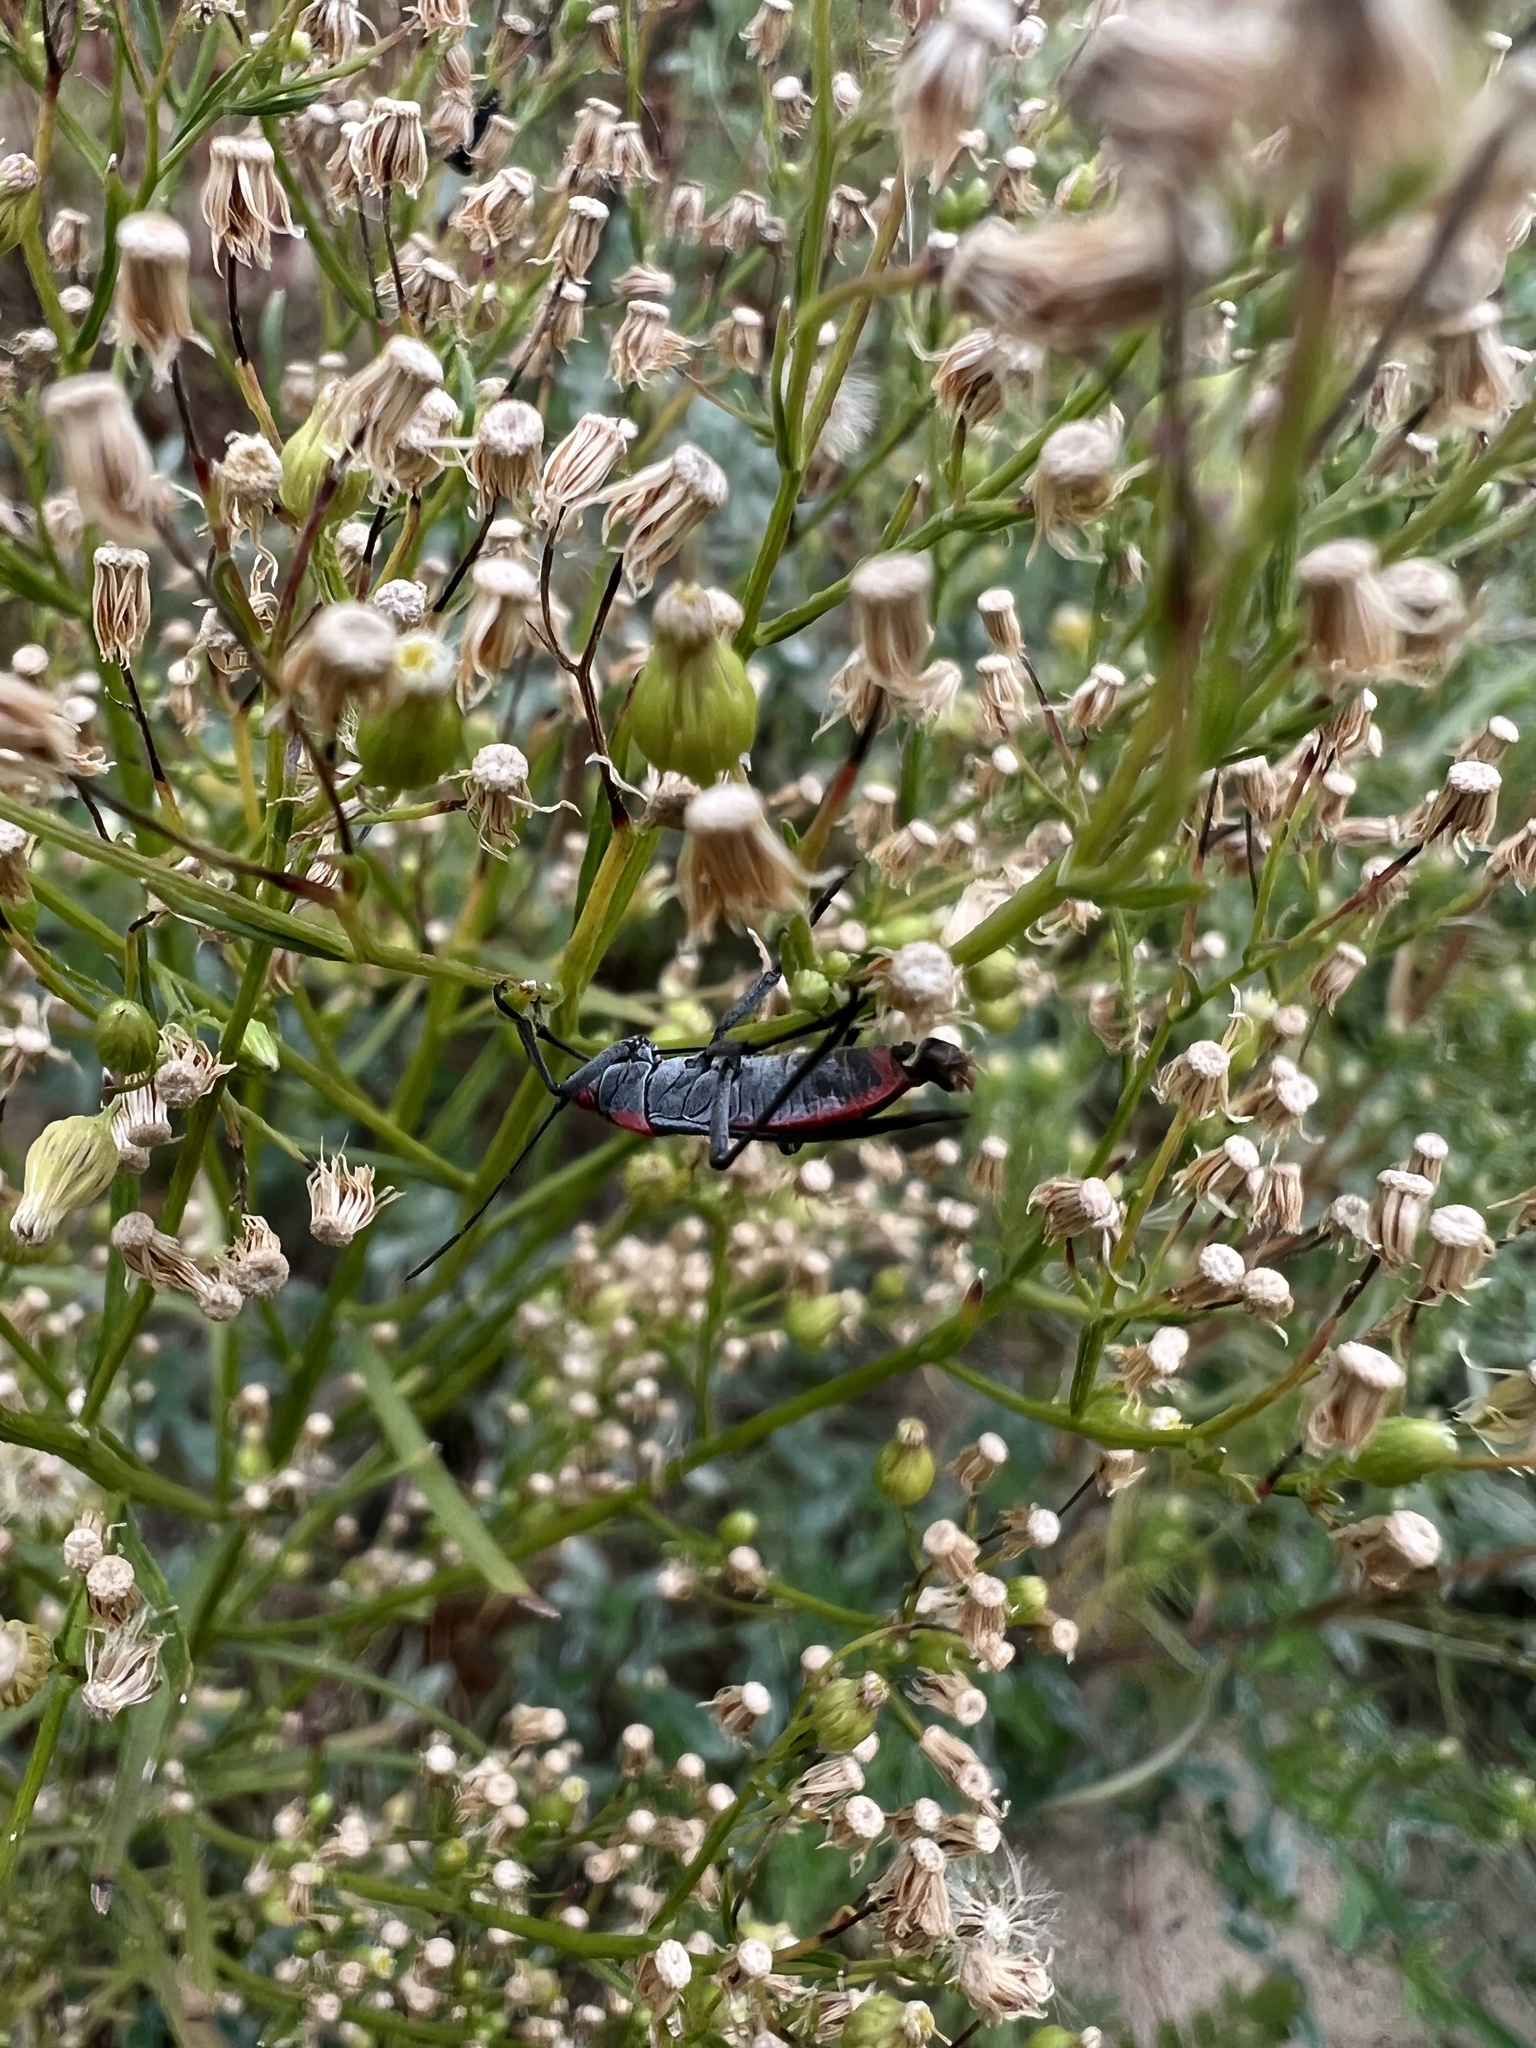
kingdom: Animalia
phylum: Arthropoda
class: Insecta
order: Hemiptera
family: Rhopalidae
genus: Jadera
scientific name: Jadera haematoloma
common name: Red-shouldered bug
